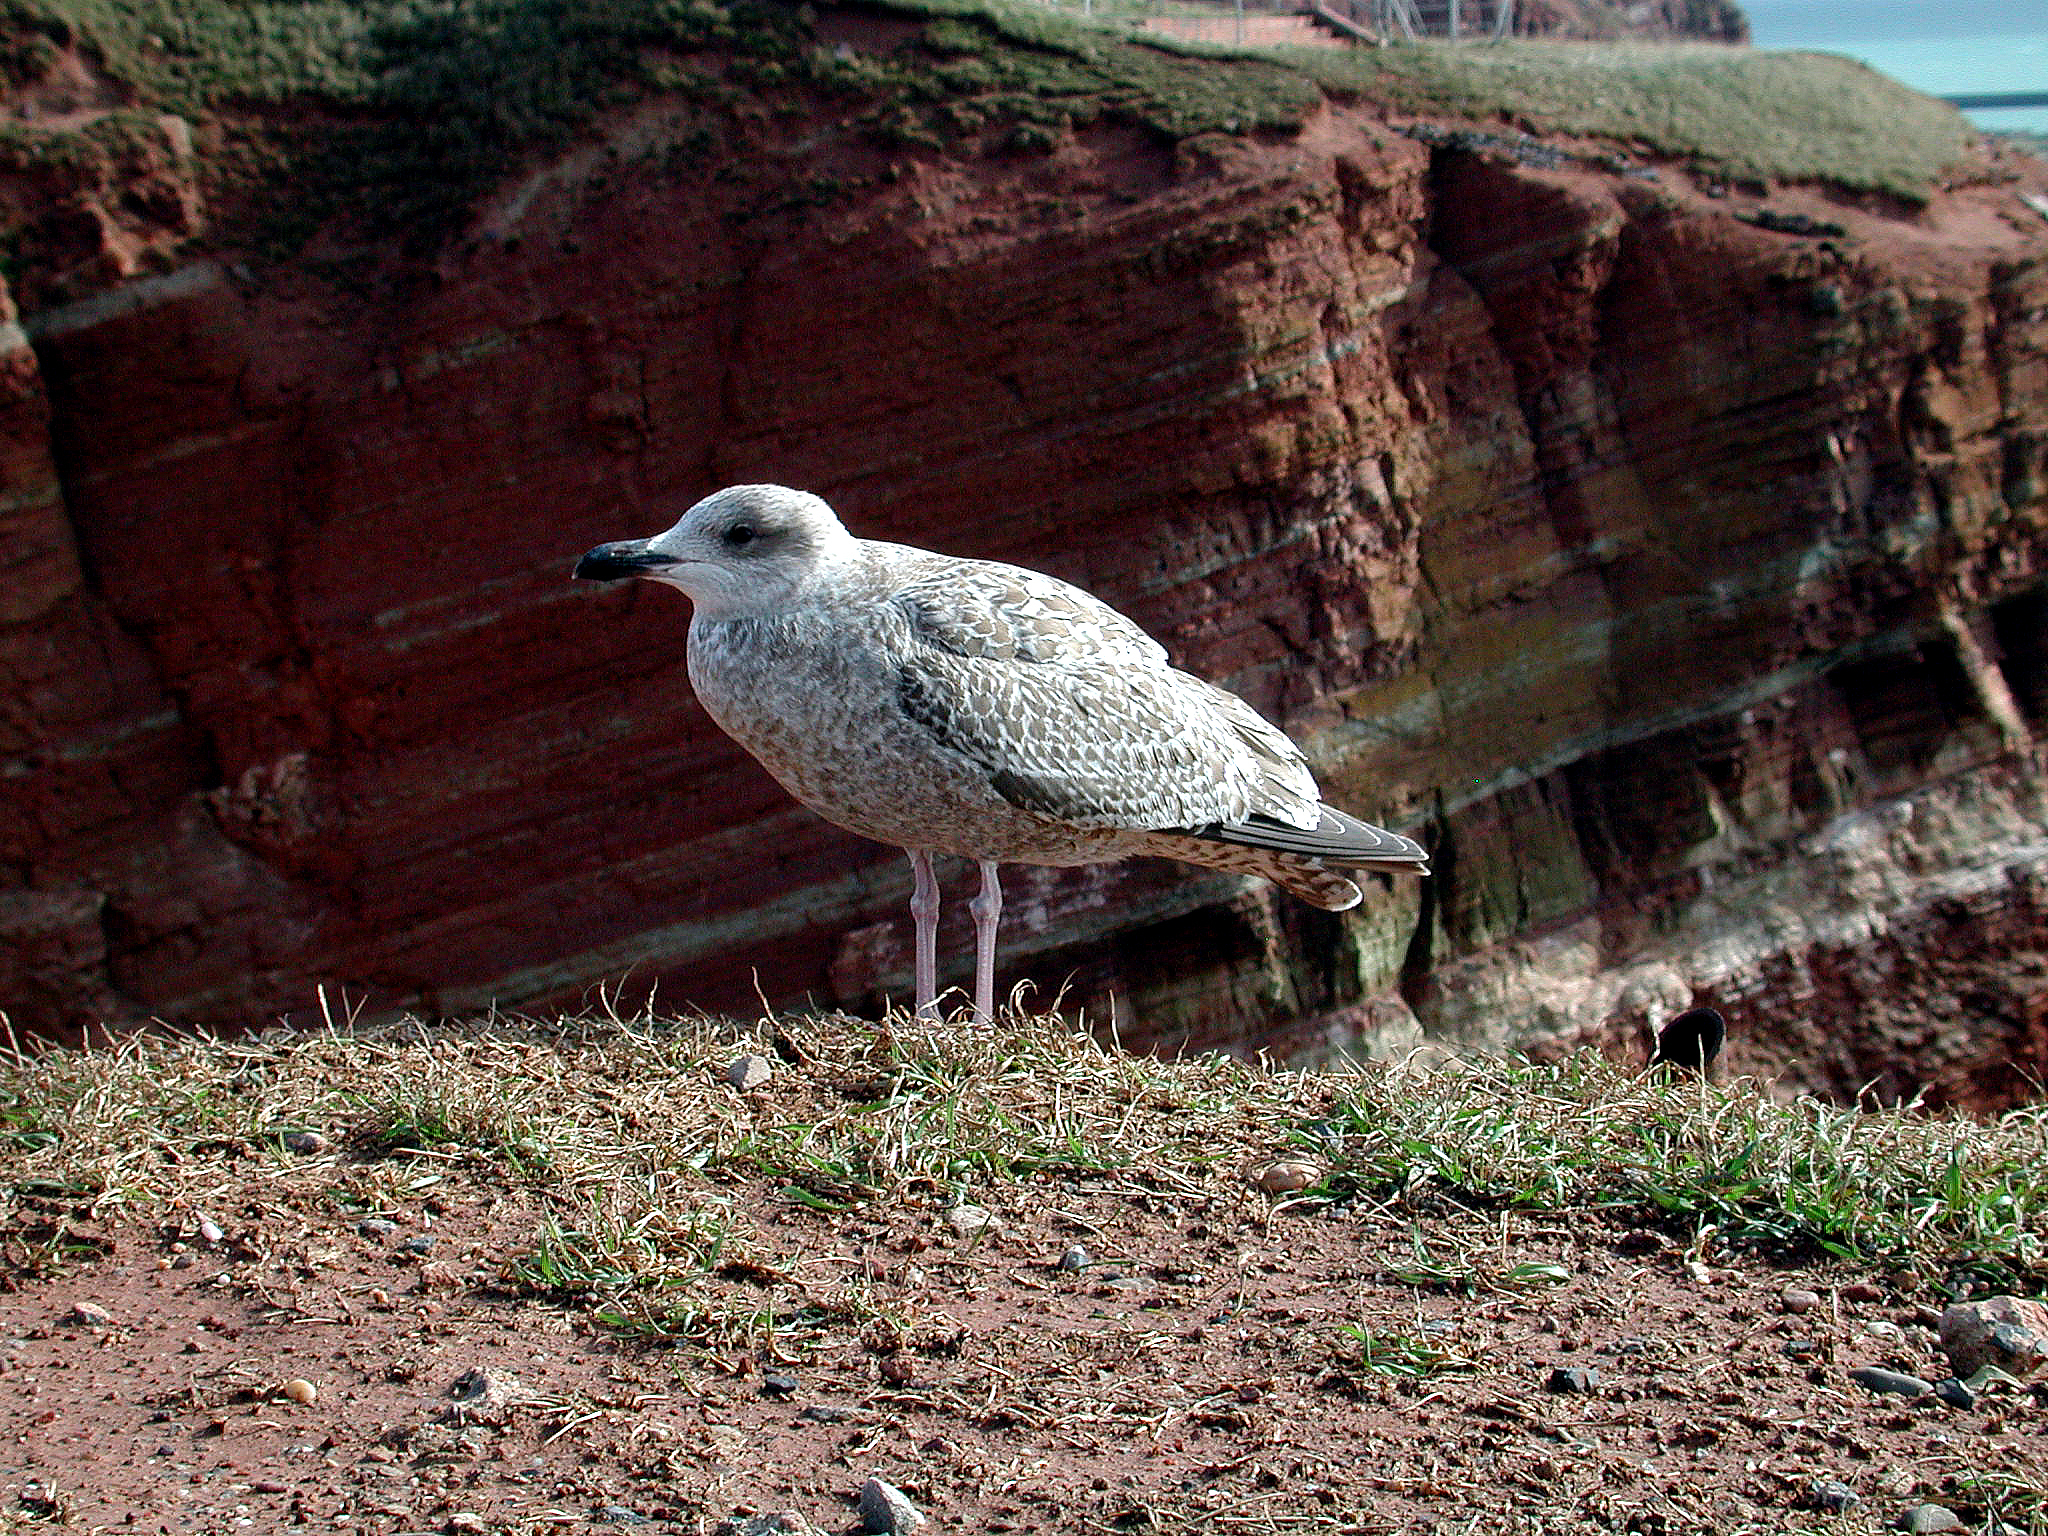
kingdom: Animalia
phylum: Chordata
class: Aves
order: Charadriiformes
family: Laridae
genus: Larus
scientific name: Larus argentatus
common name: Herring gull
